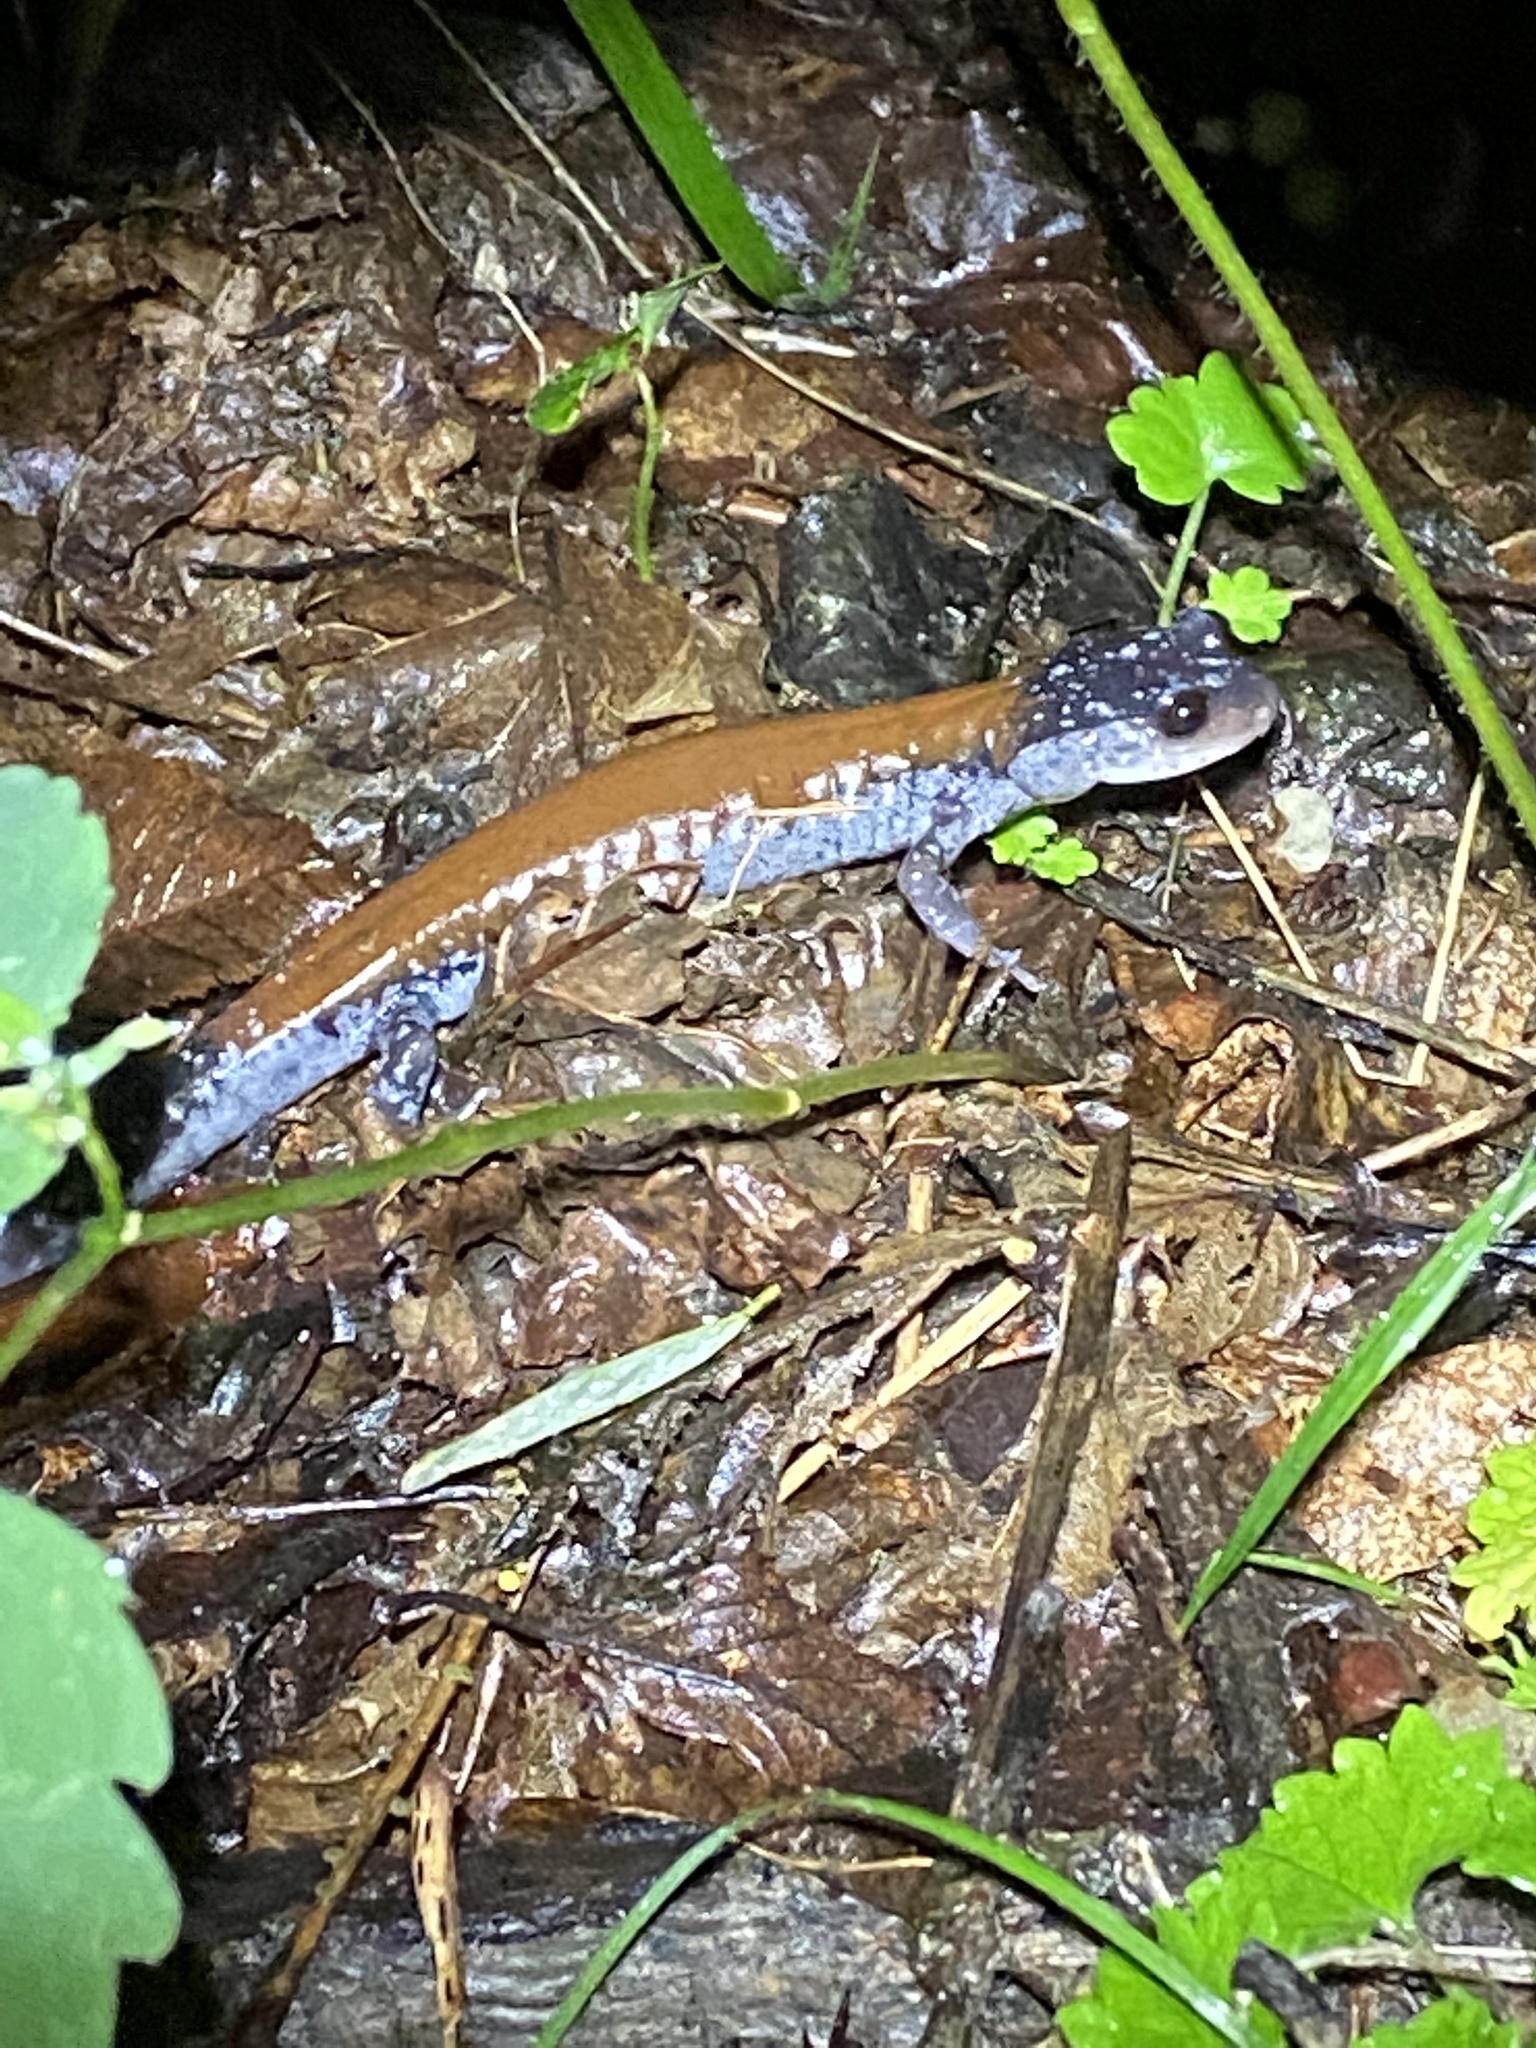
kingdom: Animalia
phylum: Chordata
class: Amphibia
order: Caudata
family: Plethodontidae
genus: Plethodon
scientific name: Plethodon yonahlossee
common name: Yonahlossee salamander
